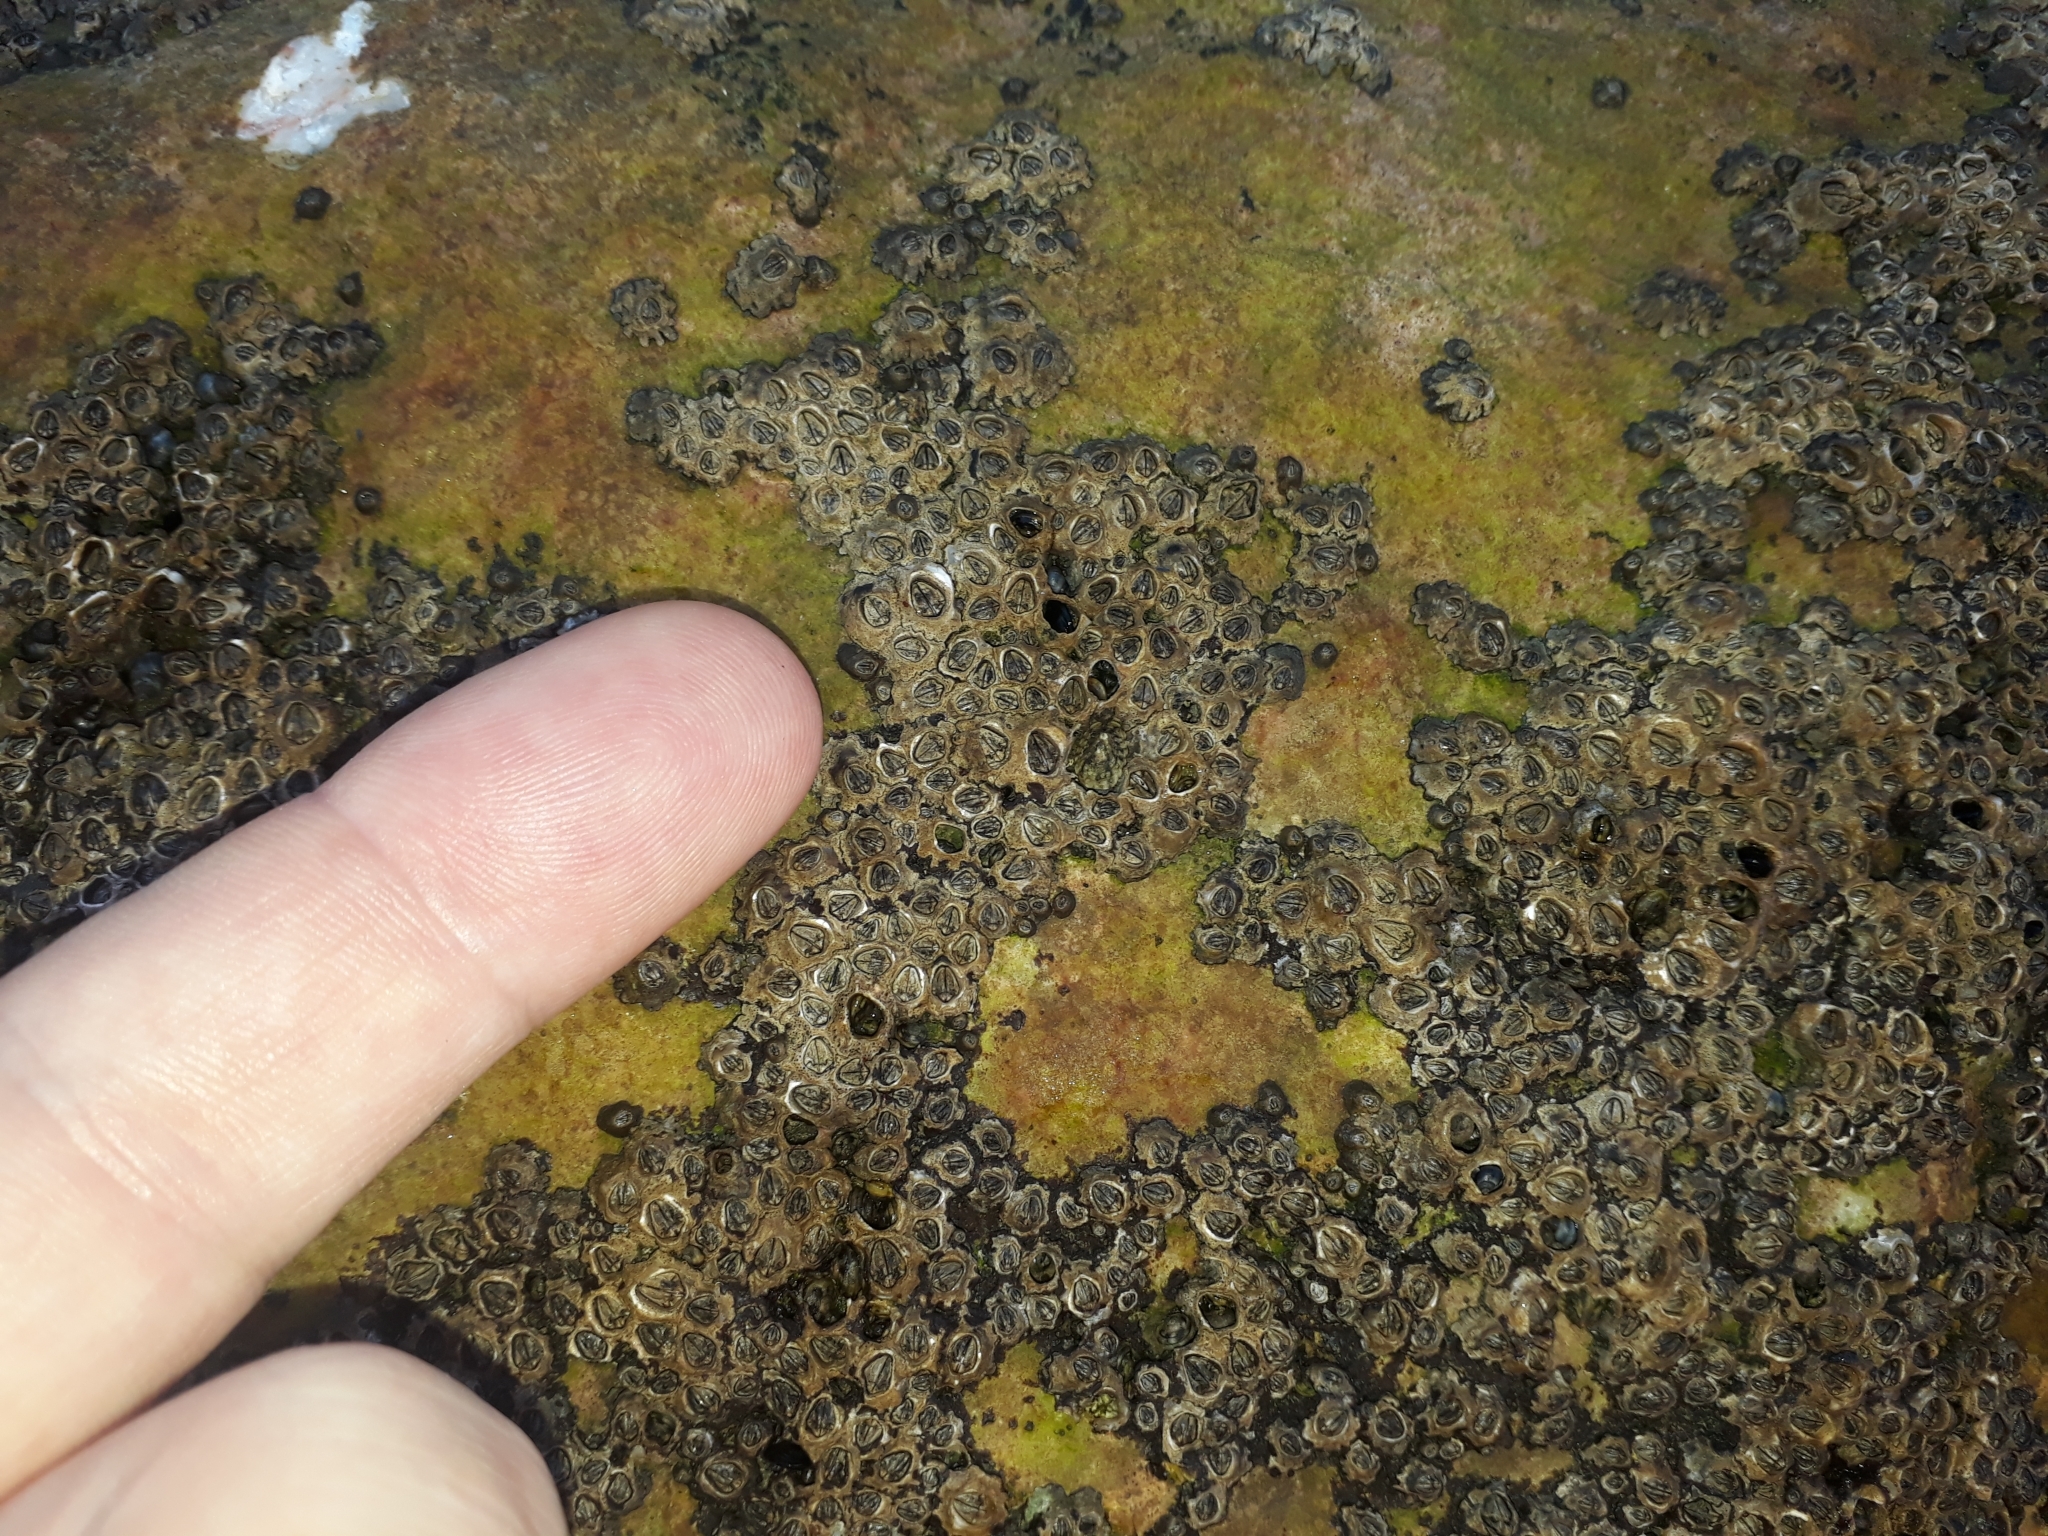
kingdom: Animalia
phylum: Arthropoda
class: Maxillopoda
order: Sessilia
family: Chthamalidae
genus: Chamaesipho
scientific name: Chamaesipho columna
